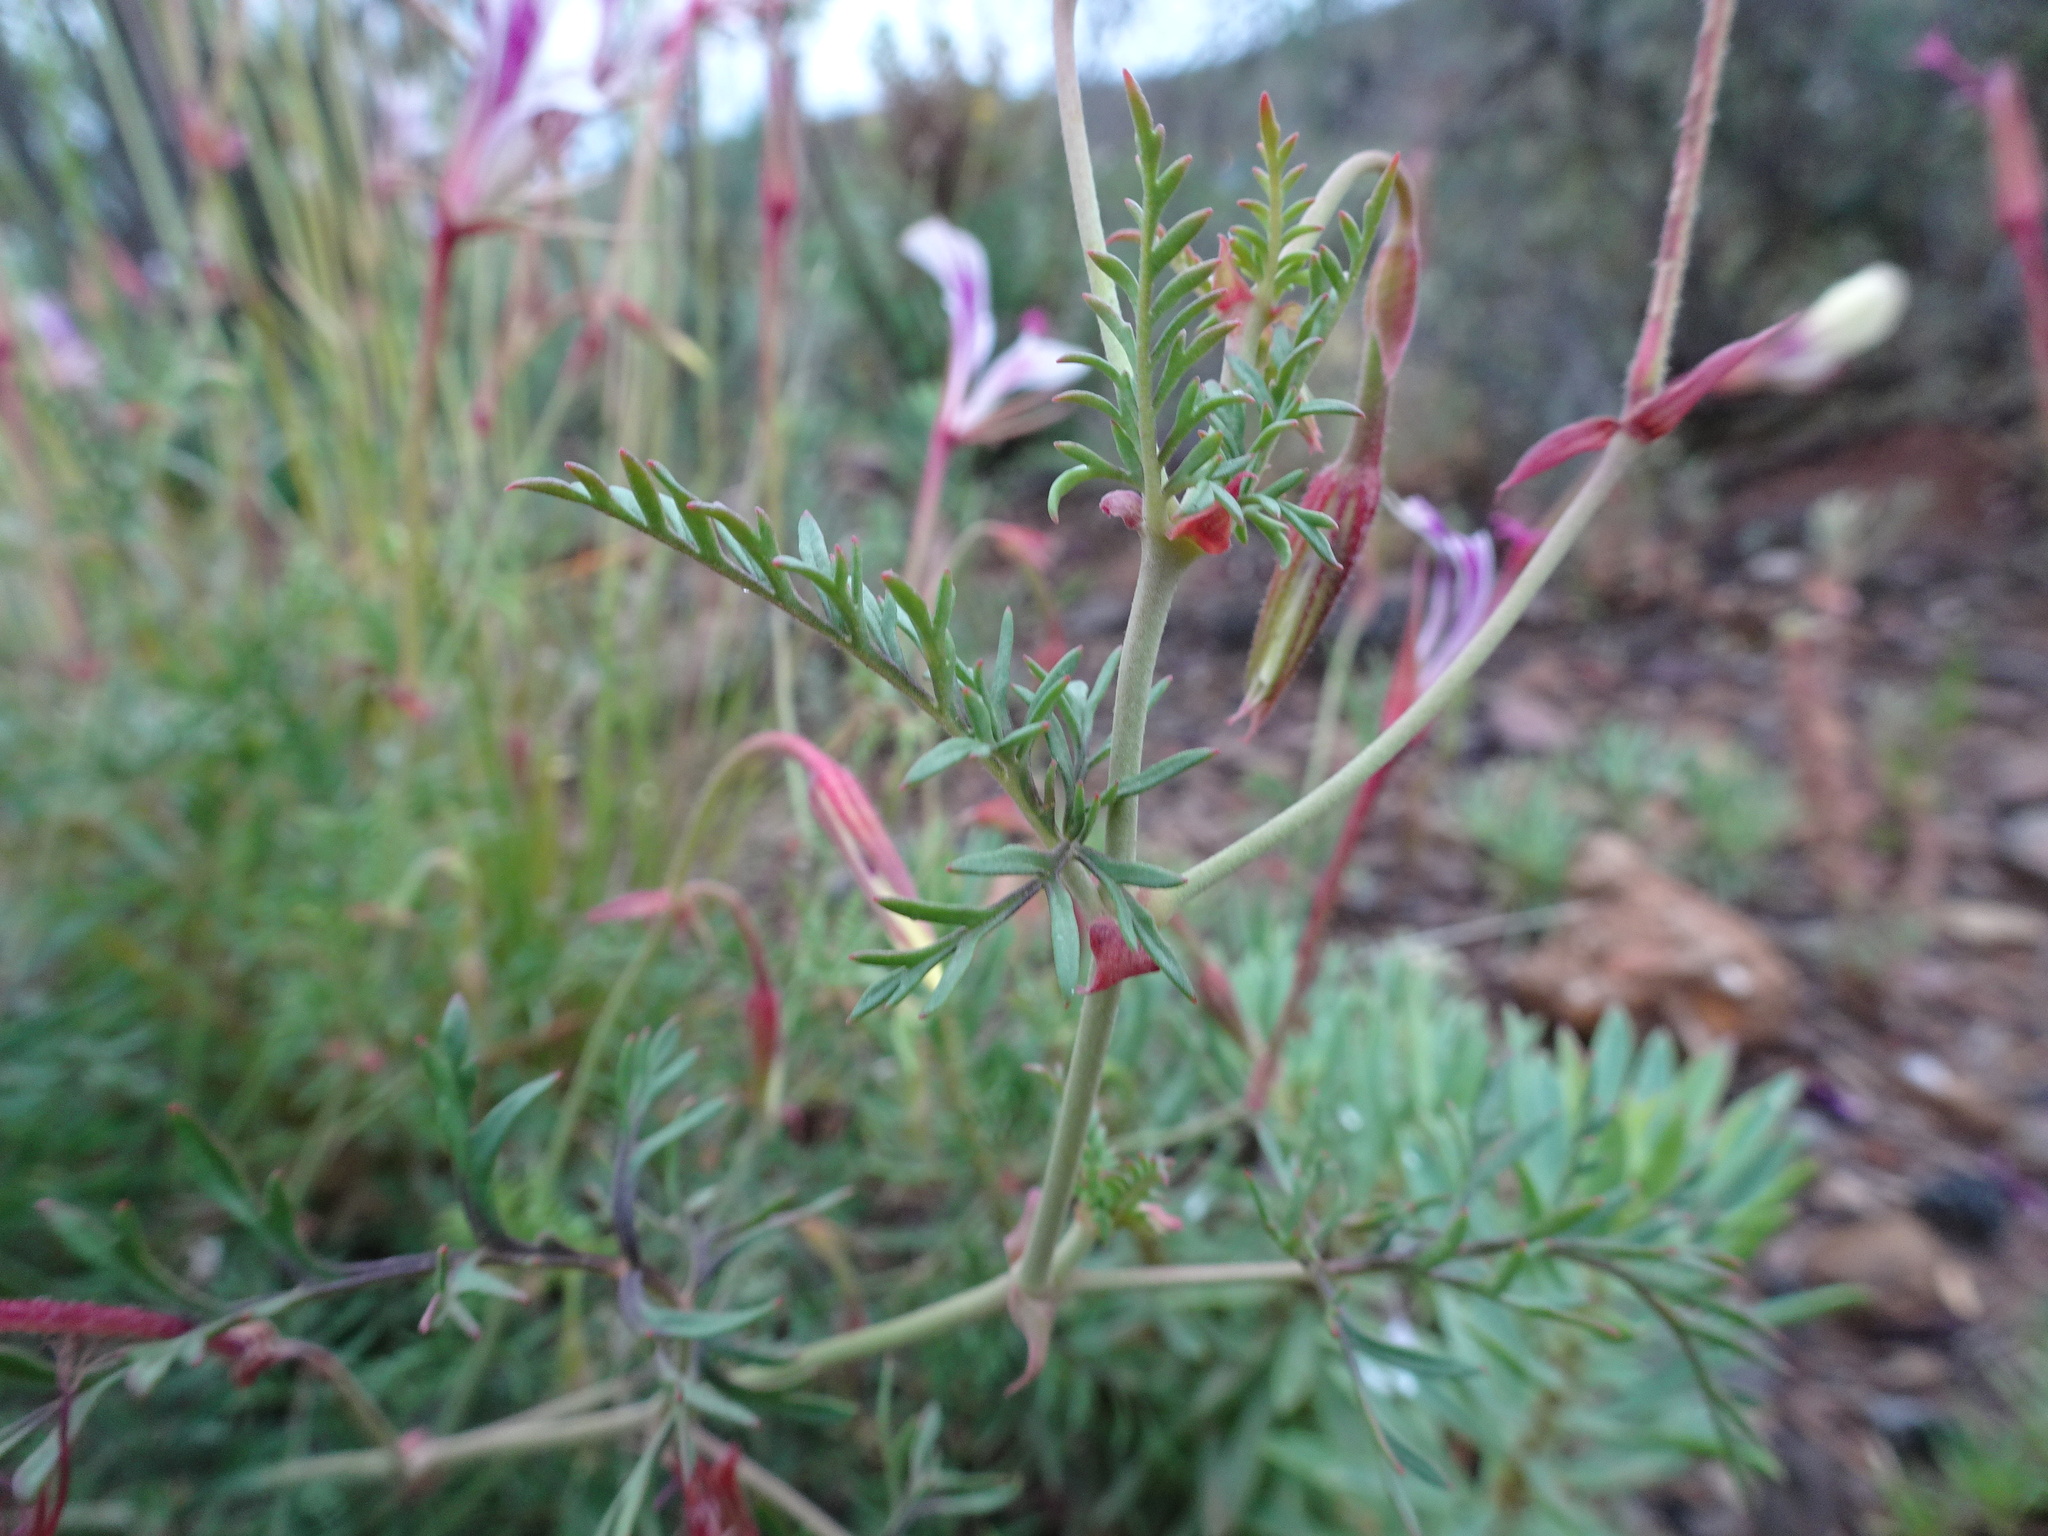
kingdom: Plantae
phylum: Tracheophyta
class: Magnoliopsida
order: Geraniales
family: Geraniaceae
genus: Pelargonium
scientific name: Pelargonium caucalifolium
